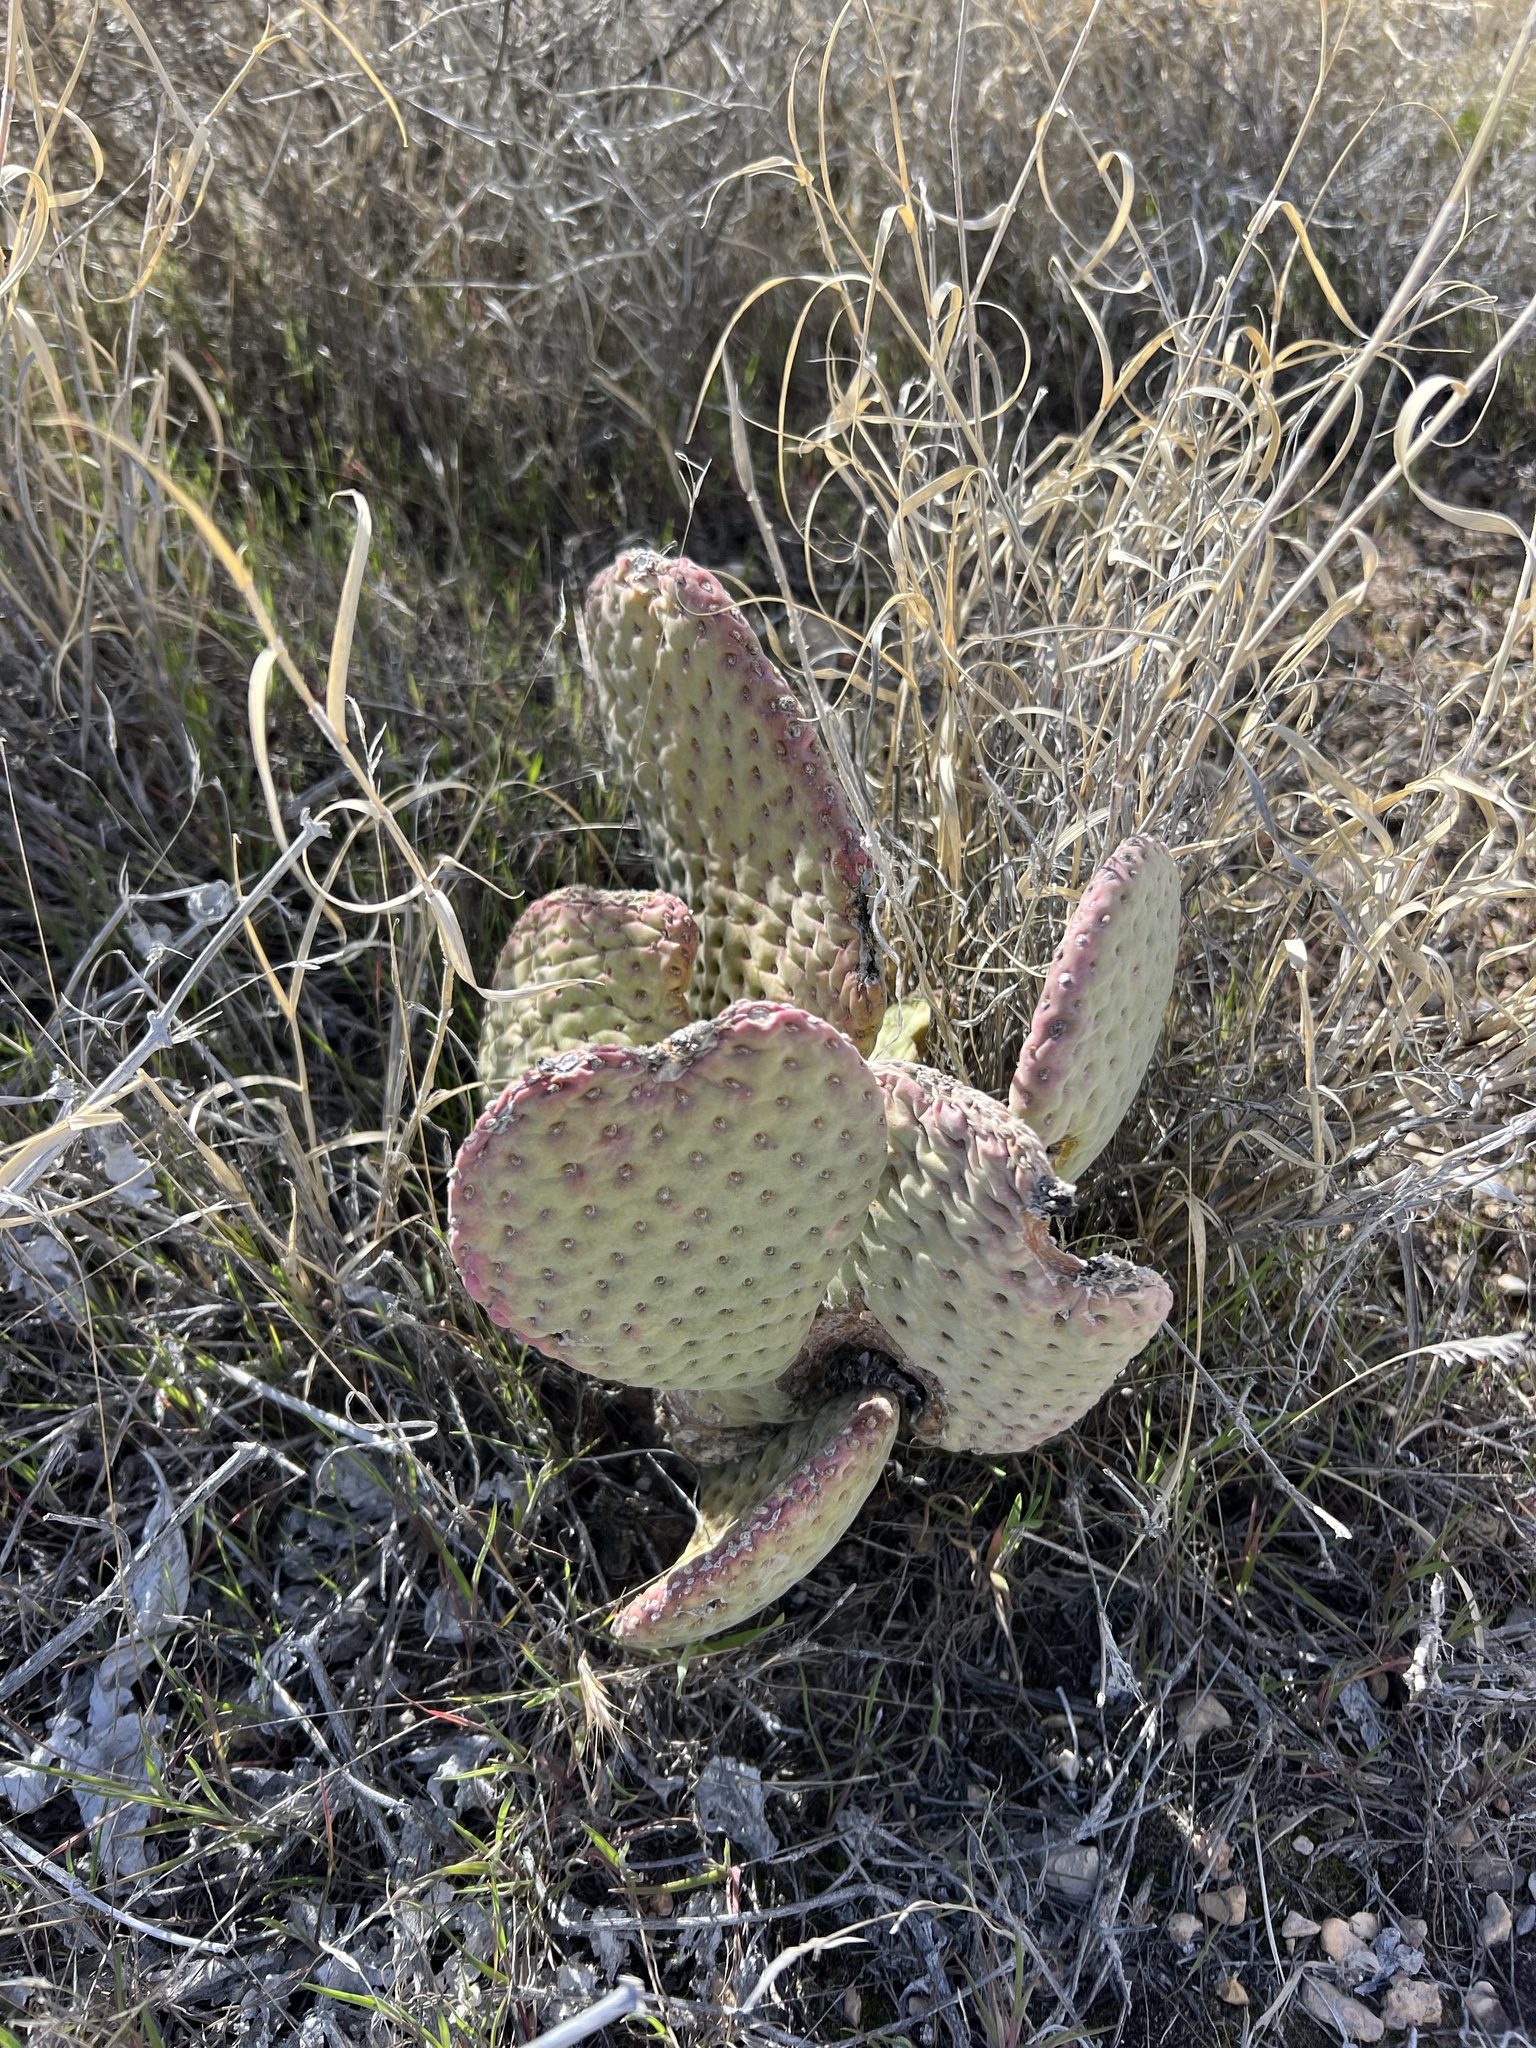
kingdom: Plantae
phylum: Tracheophyta
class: Magnoliopsida
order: Caryophyllales
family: Cactaceae
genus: Opuntia
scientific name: Opuntia basilaris
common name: Beavertail prickly-pear
